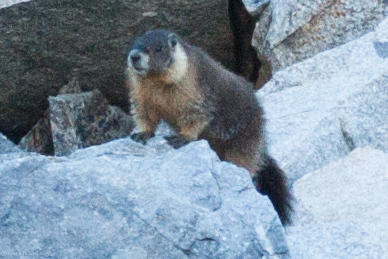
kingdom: Animalia
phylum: Chordata
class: Mammalia
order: Rodentia
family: Sciuridae
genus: Marmota
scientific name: Marmota flaviventris
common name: Yellow-bellied marmot
